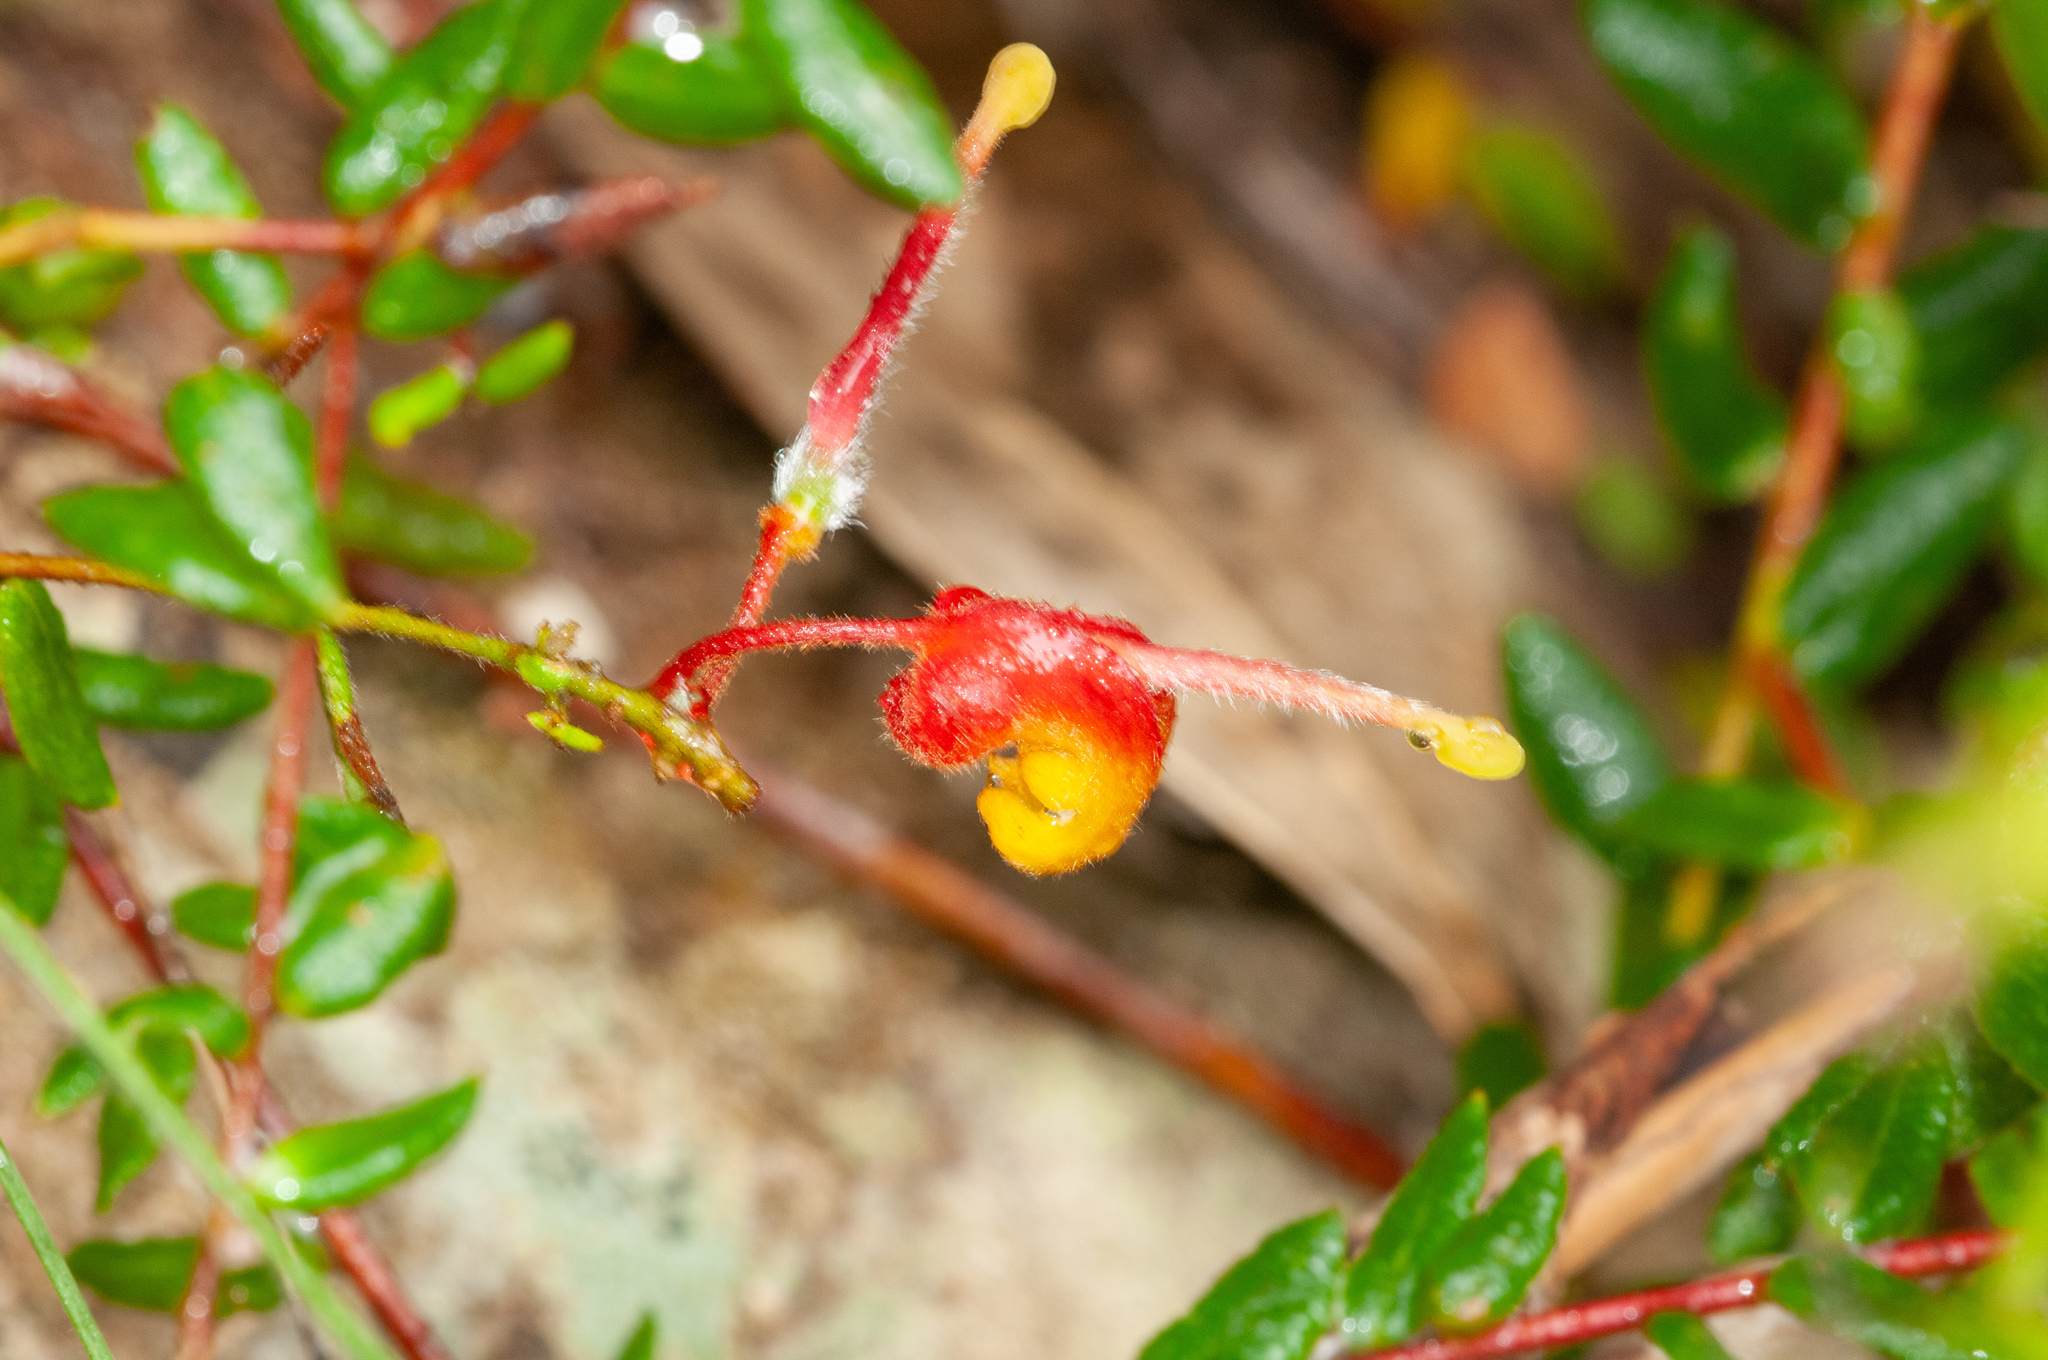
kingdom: Plantae
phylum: Tracheophyta
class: Magnoliopsida
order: Proteales
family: Proteaceae
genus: Grevillea
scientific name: Grevillea alpina
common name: Catclaws grevillea
